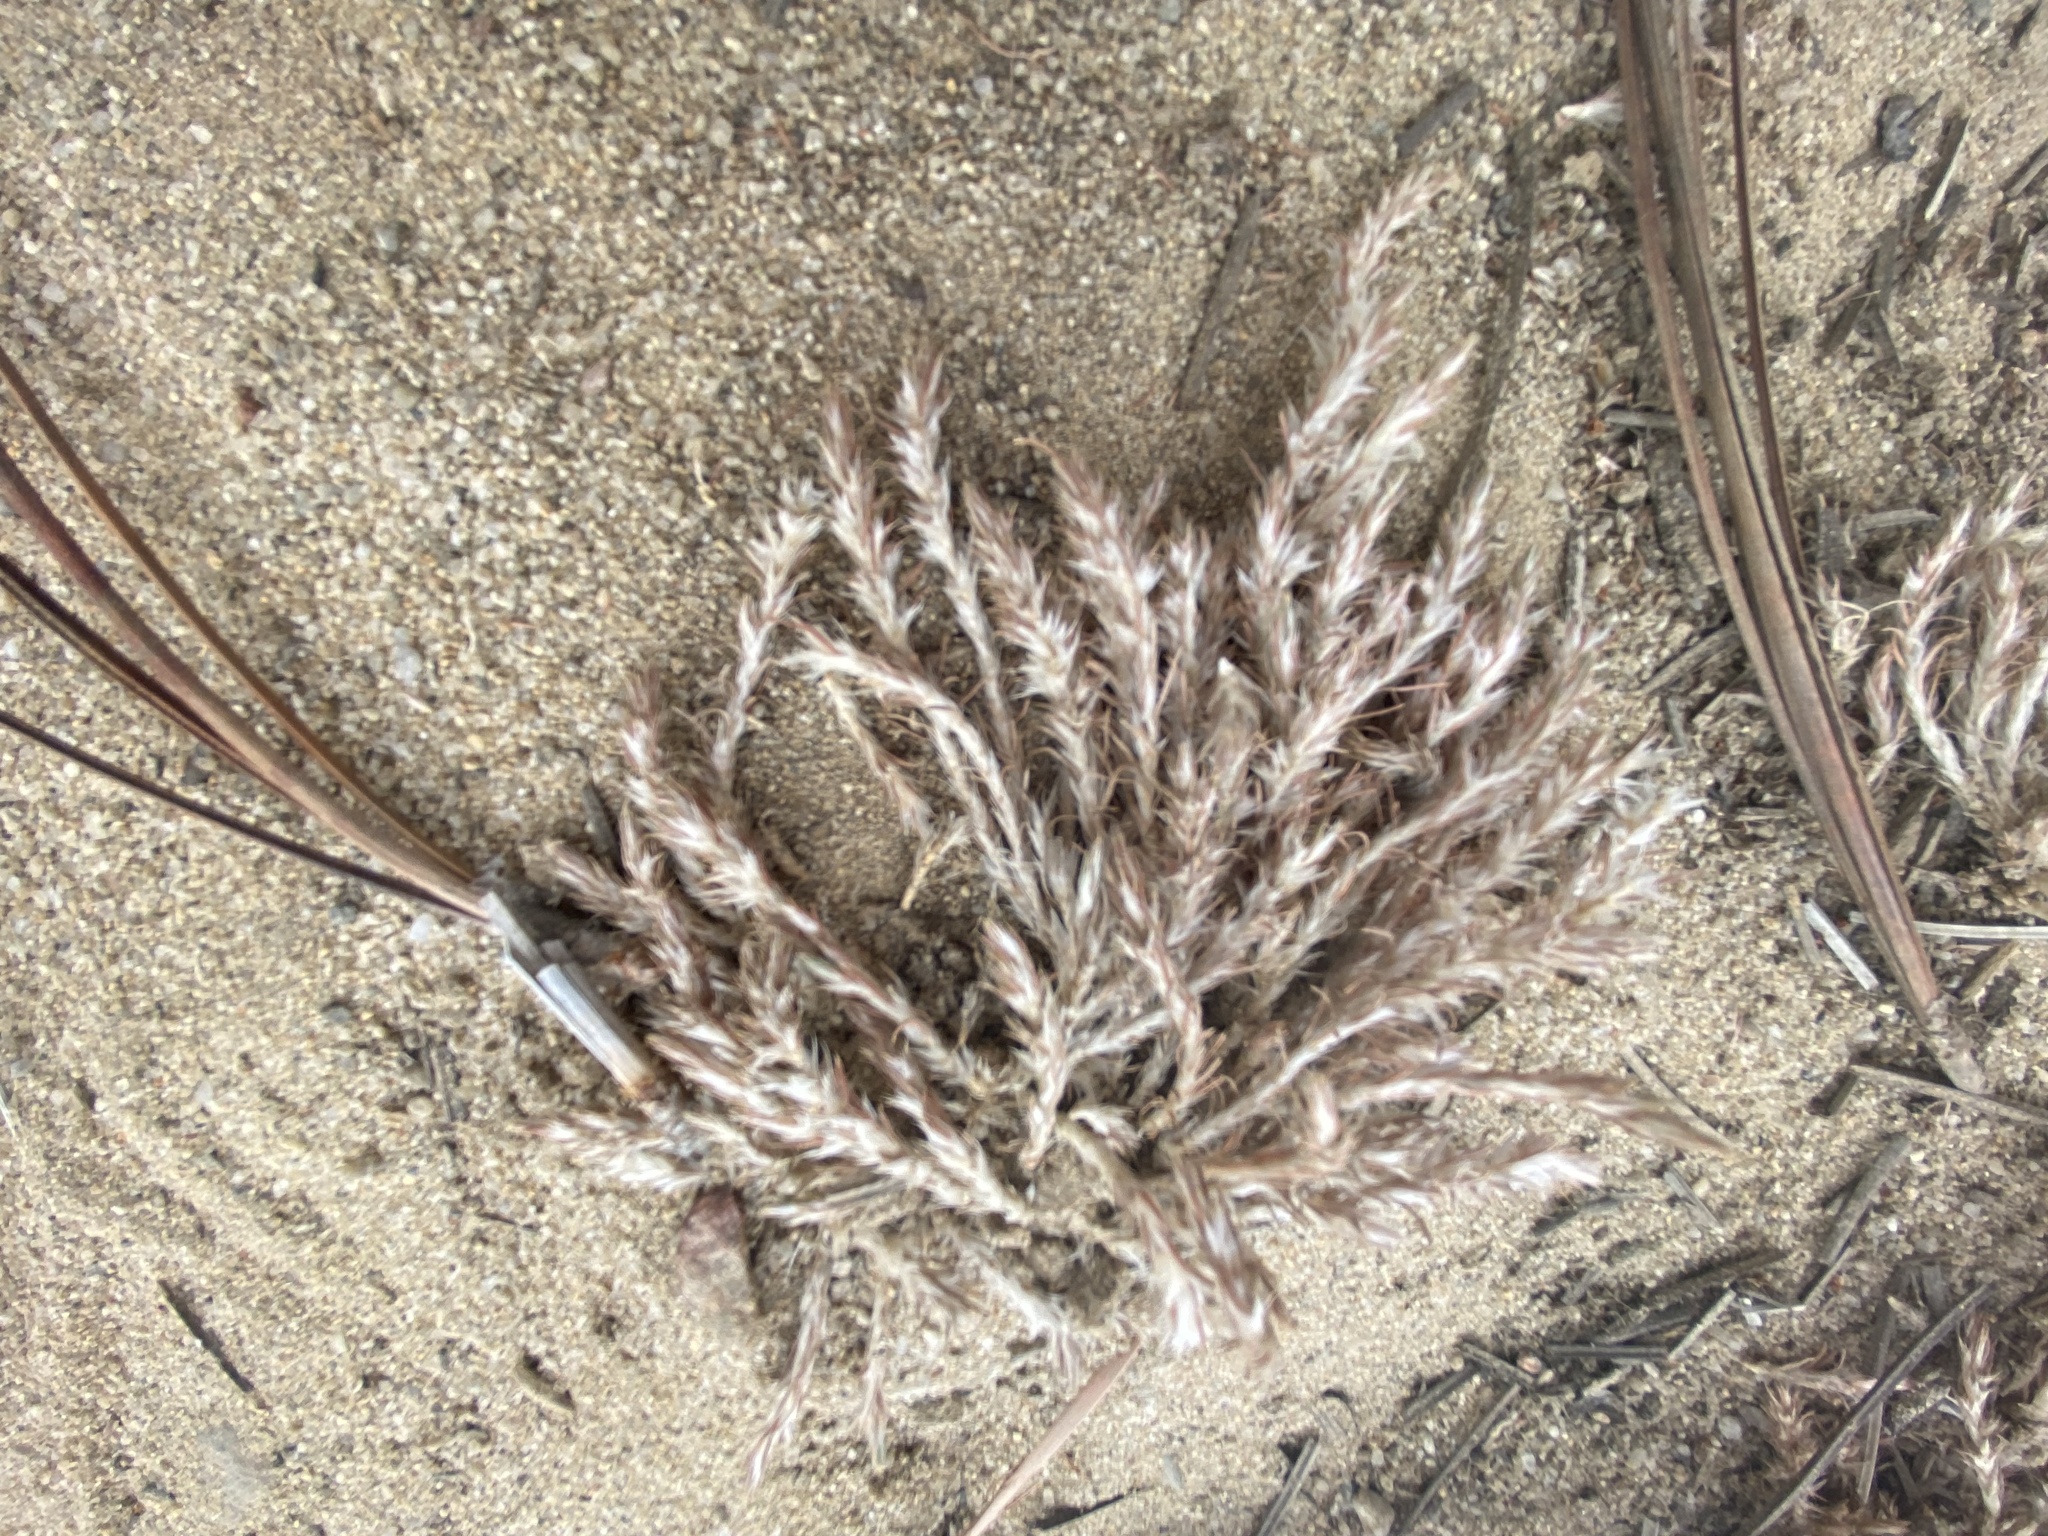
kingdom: Plantae
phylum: Tracheophyta
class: Magnoliopsida
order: Caryophyllales
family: Caryophyllaceae
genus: Cardionema
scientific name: Cardionema ramosissima
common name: Sandcarpet
